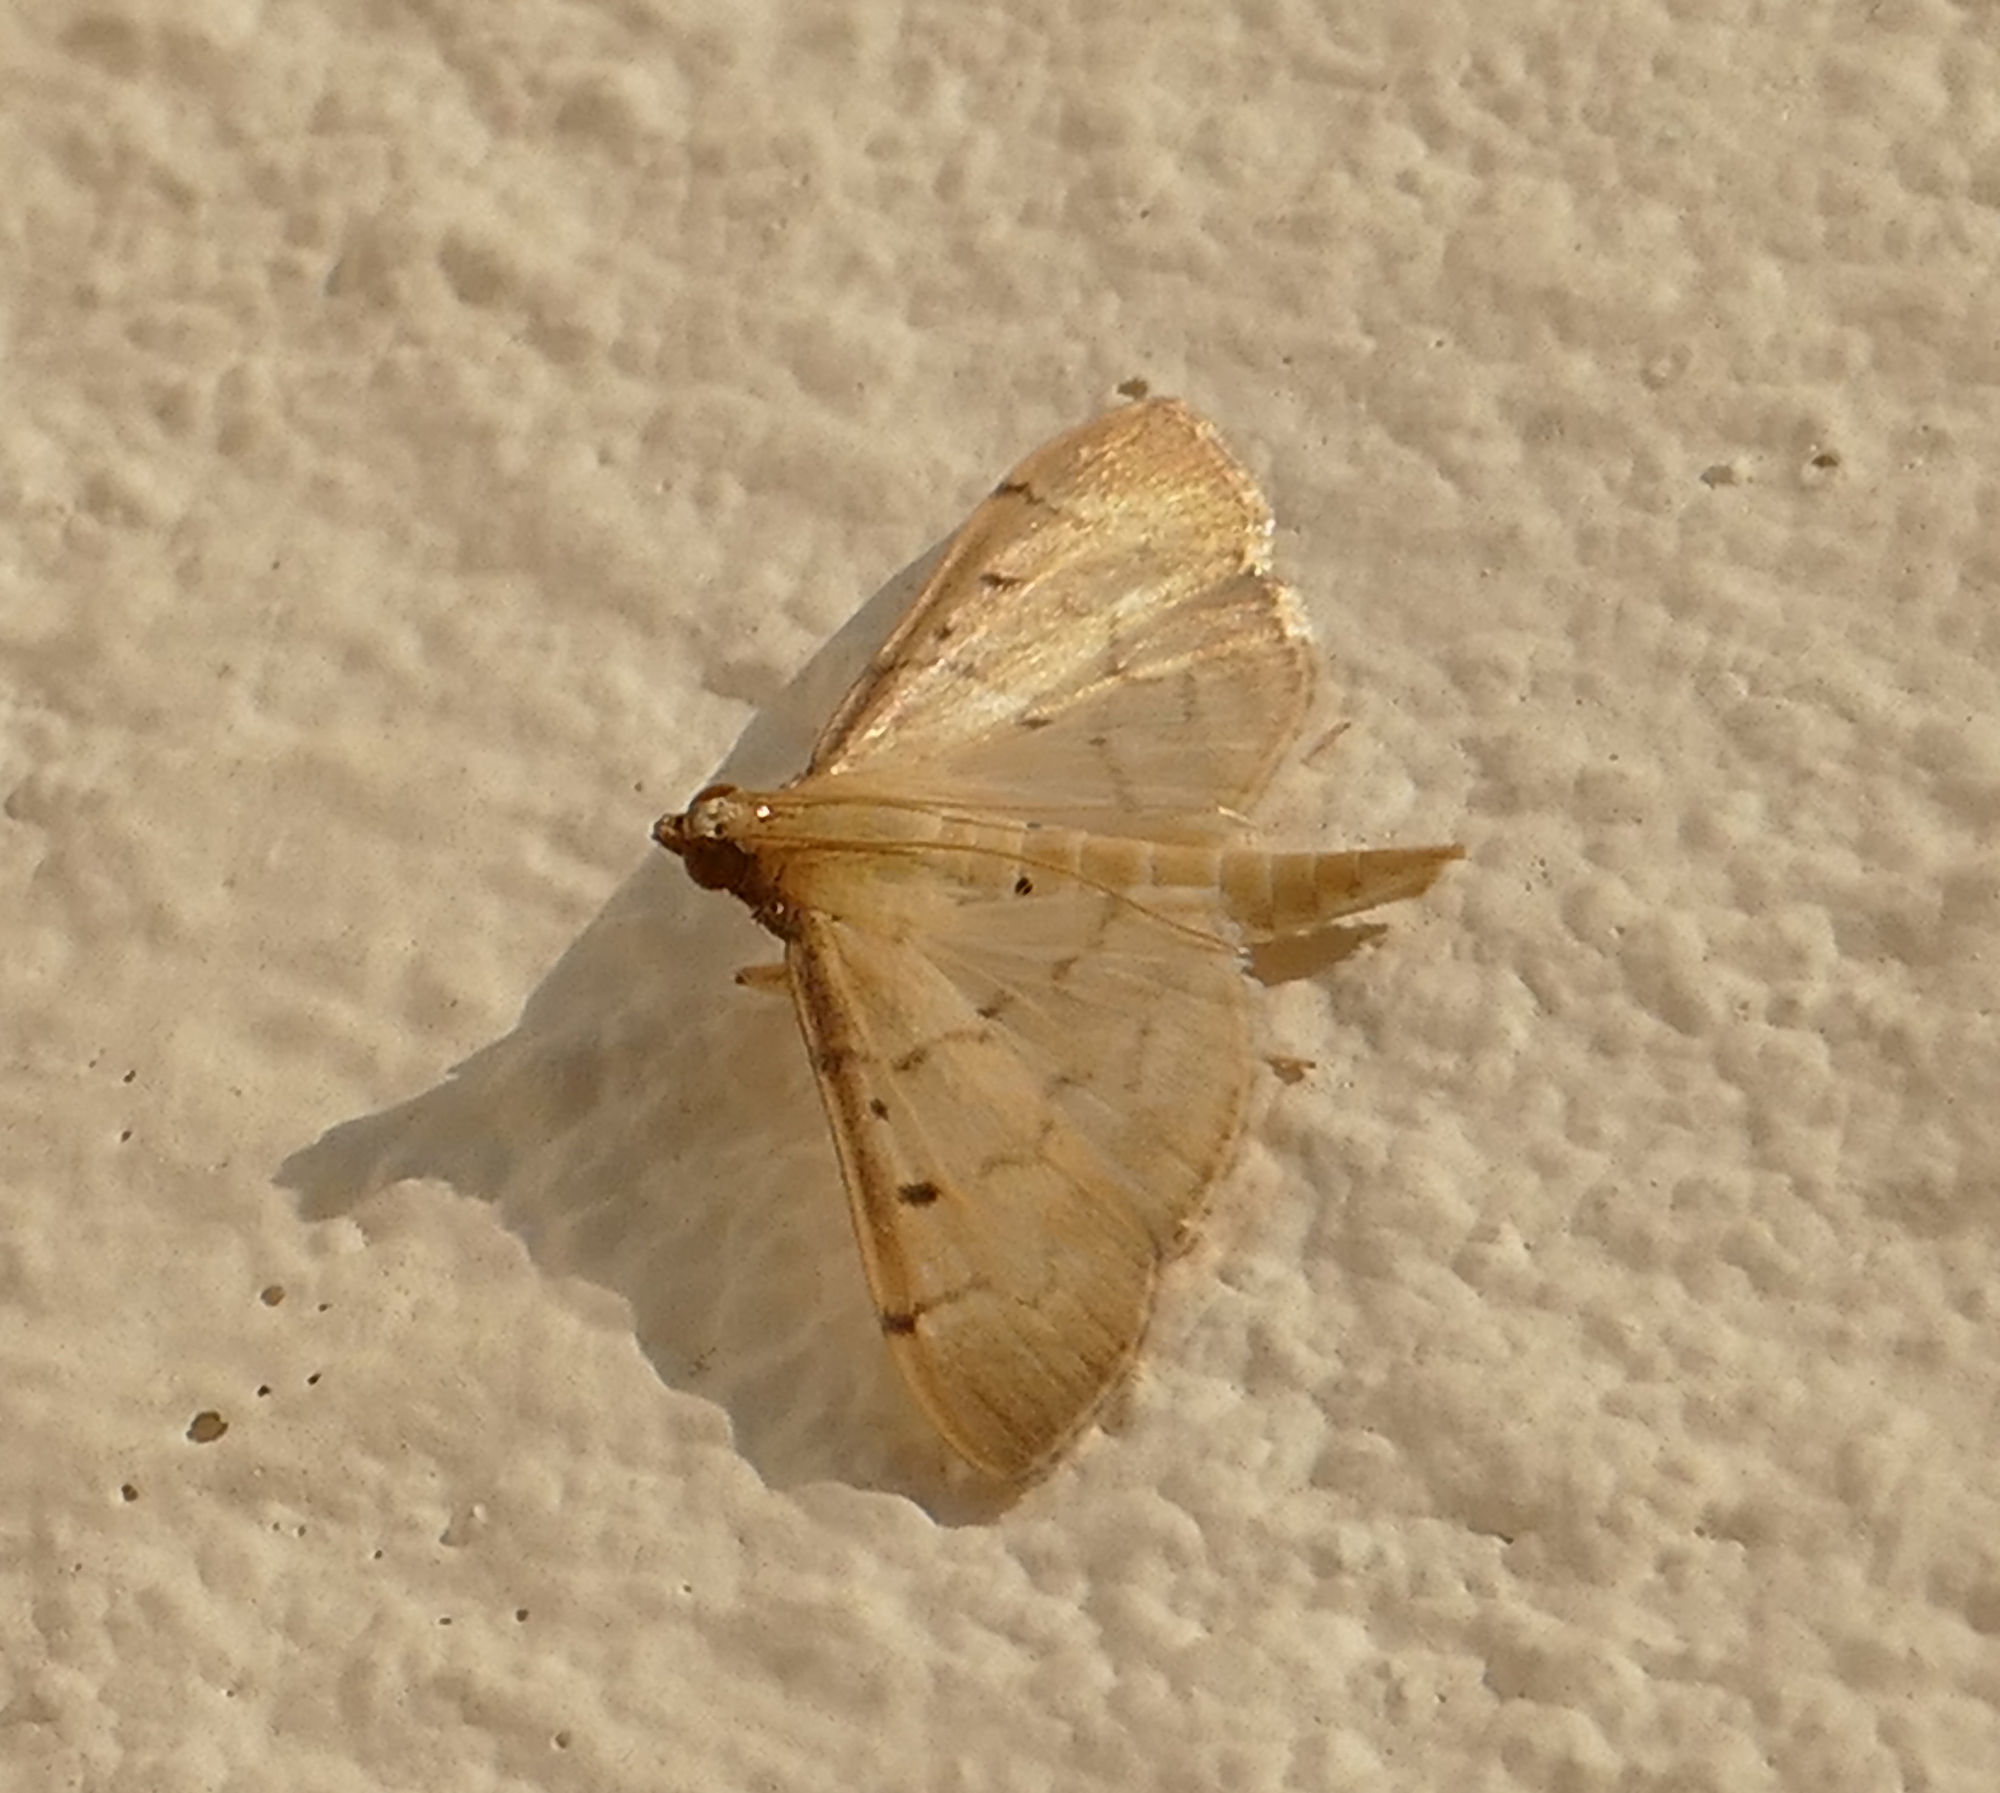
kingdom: Animalia
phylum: Arthropoda
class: Insecta
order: Lepidoptera
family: Crambidae
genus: Herpetogramma
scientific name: Herpetogramma bipunctalis
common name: Southern beet webworm
